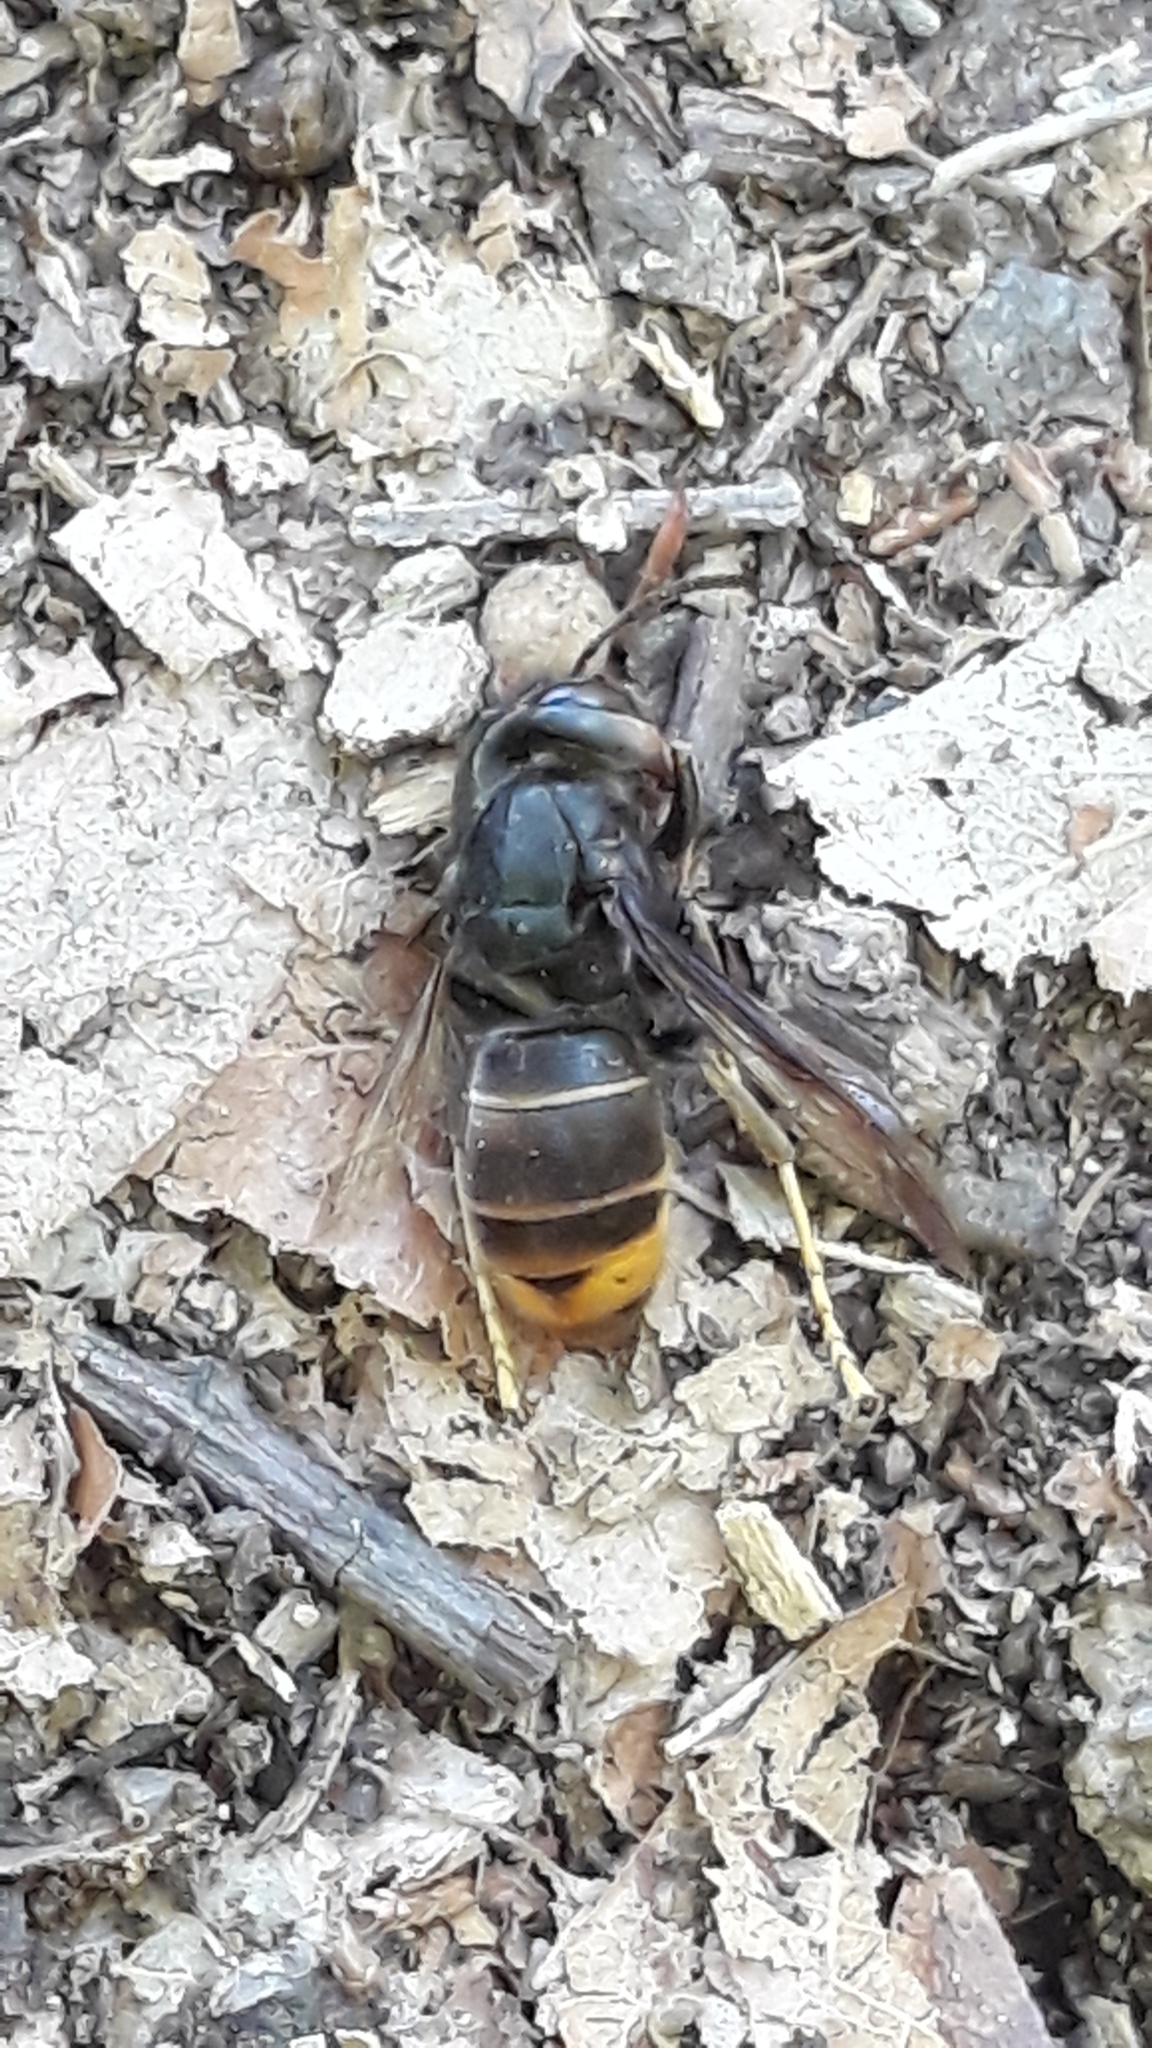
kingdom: Animalia
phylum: Arthropoda
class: Insecta
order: Hymenoptera
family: Vespidae
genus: Vespa
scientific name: Vespa velutina
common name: Asian hornet
